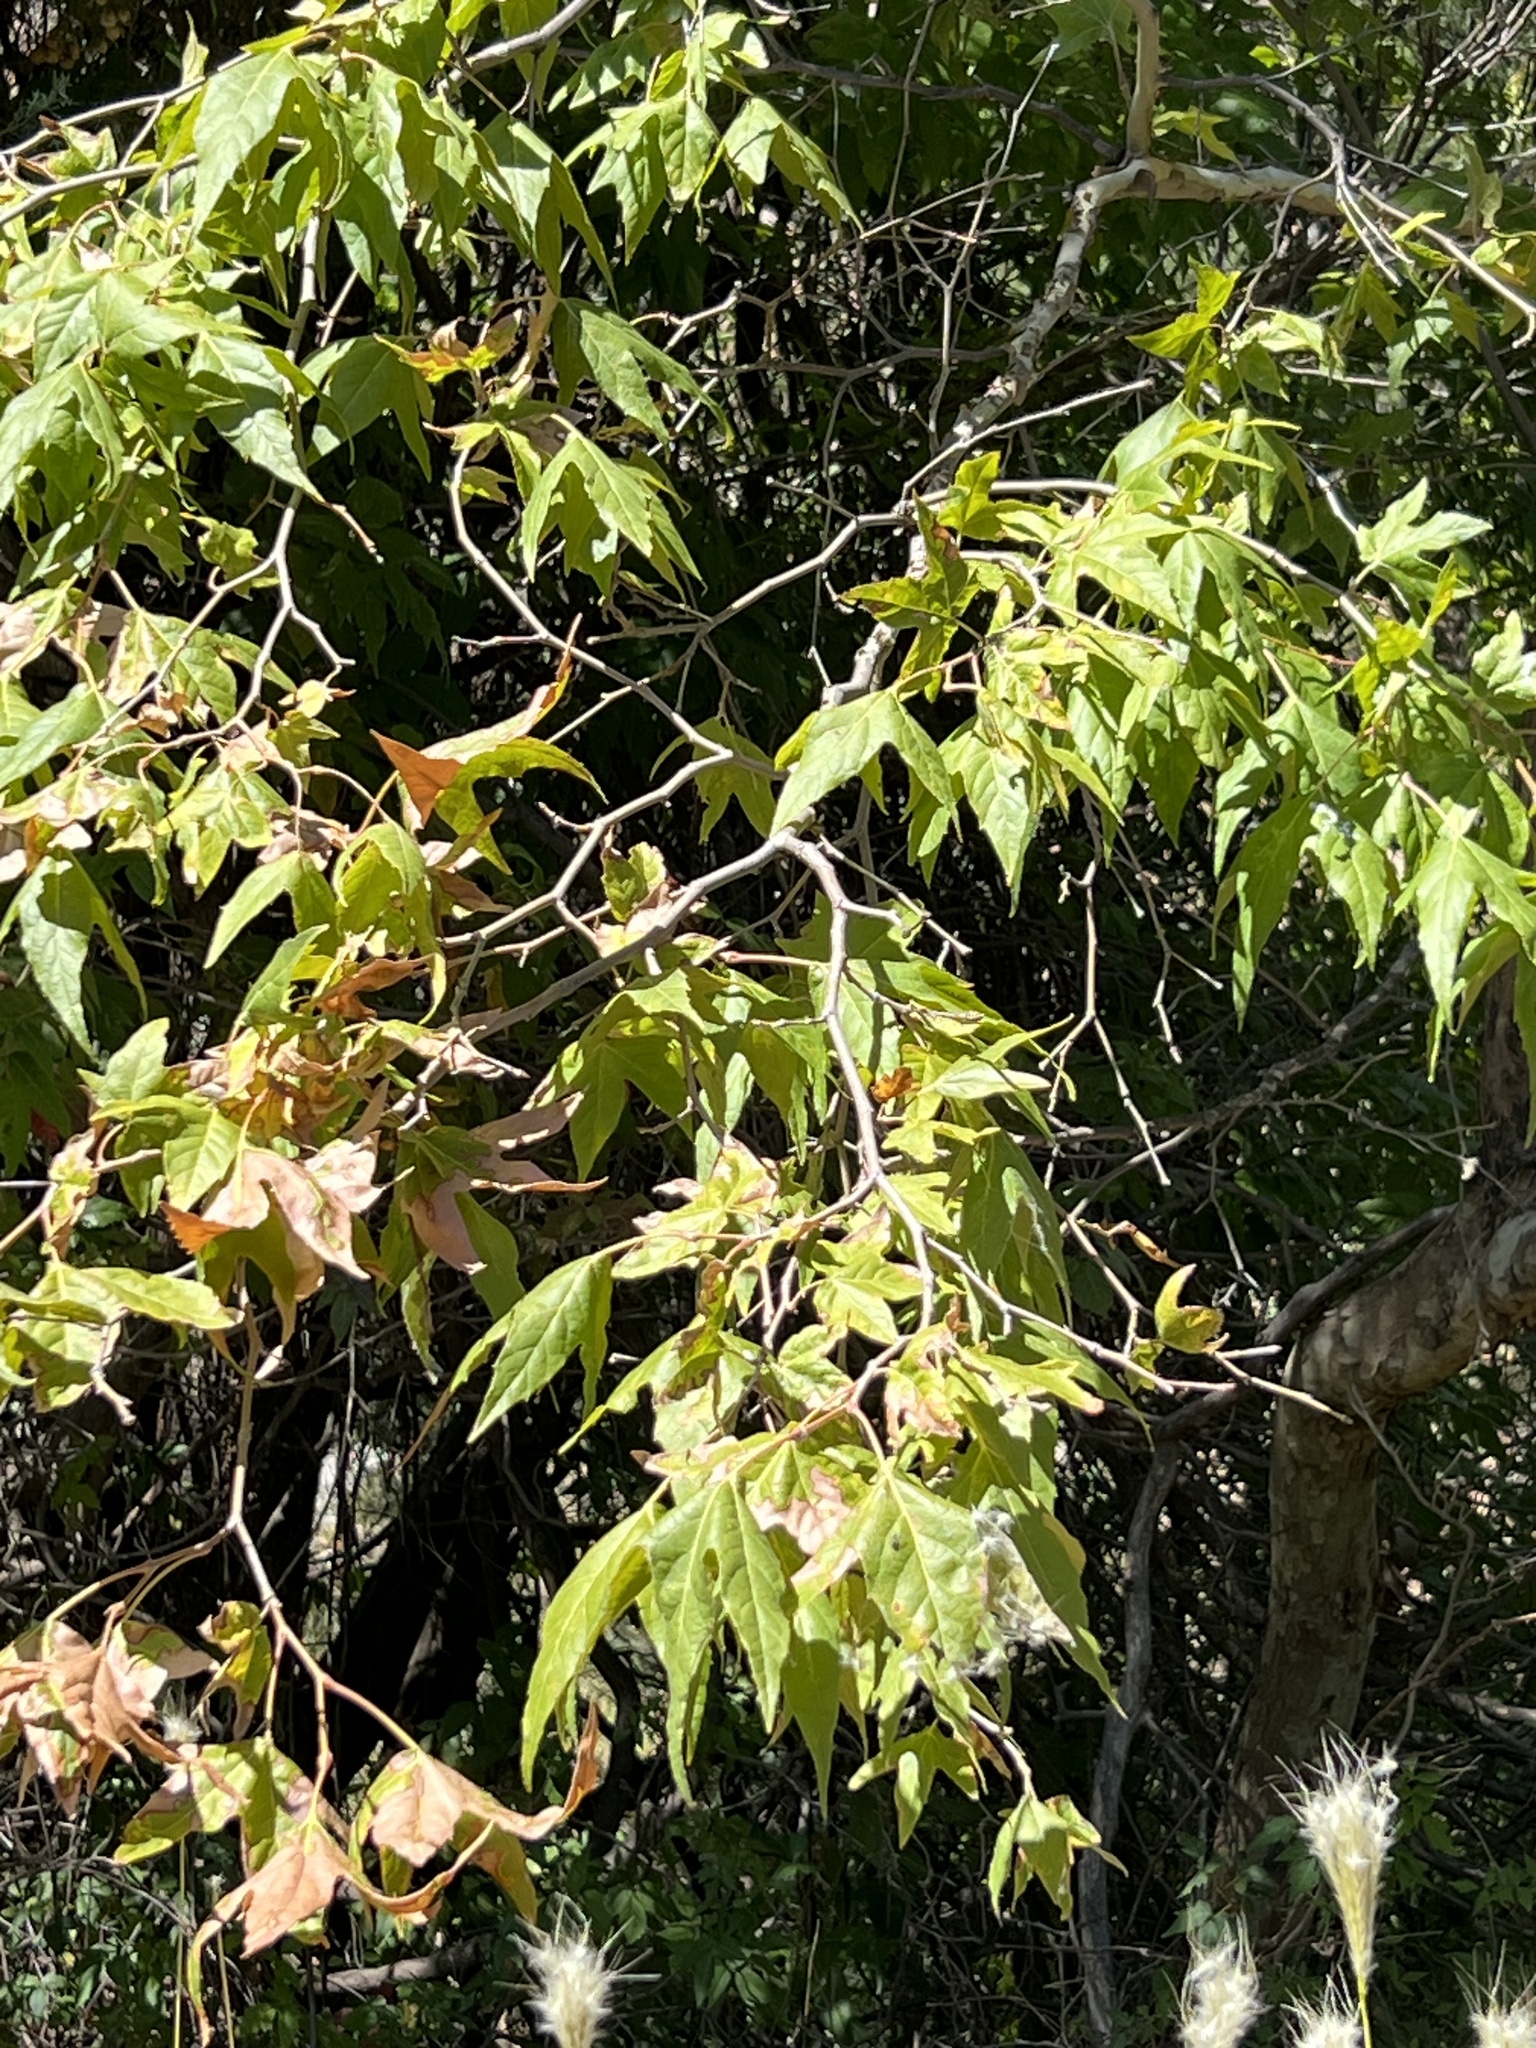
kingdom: Plantae
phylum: Tracheophyta
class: Magnoliopsida
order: Proteales
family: Platanaceae
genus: Platanus
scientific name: Platanus wrightii
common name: Arizona sycamore
